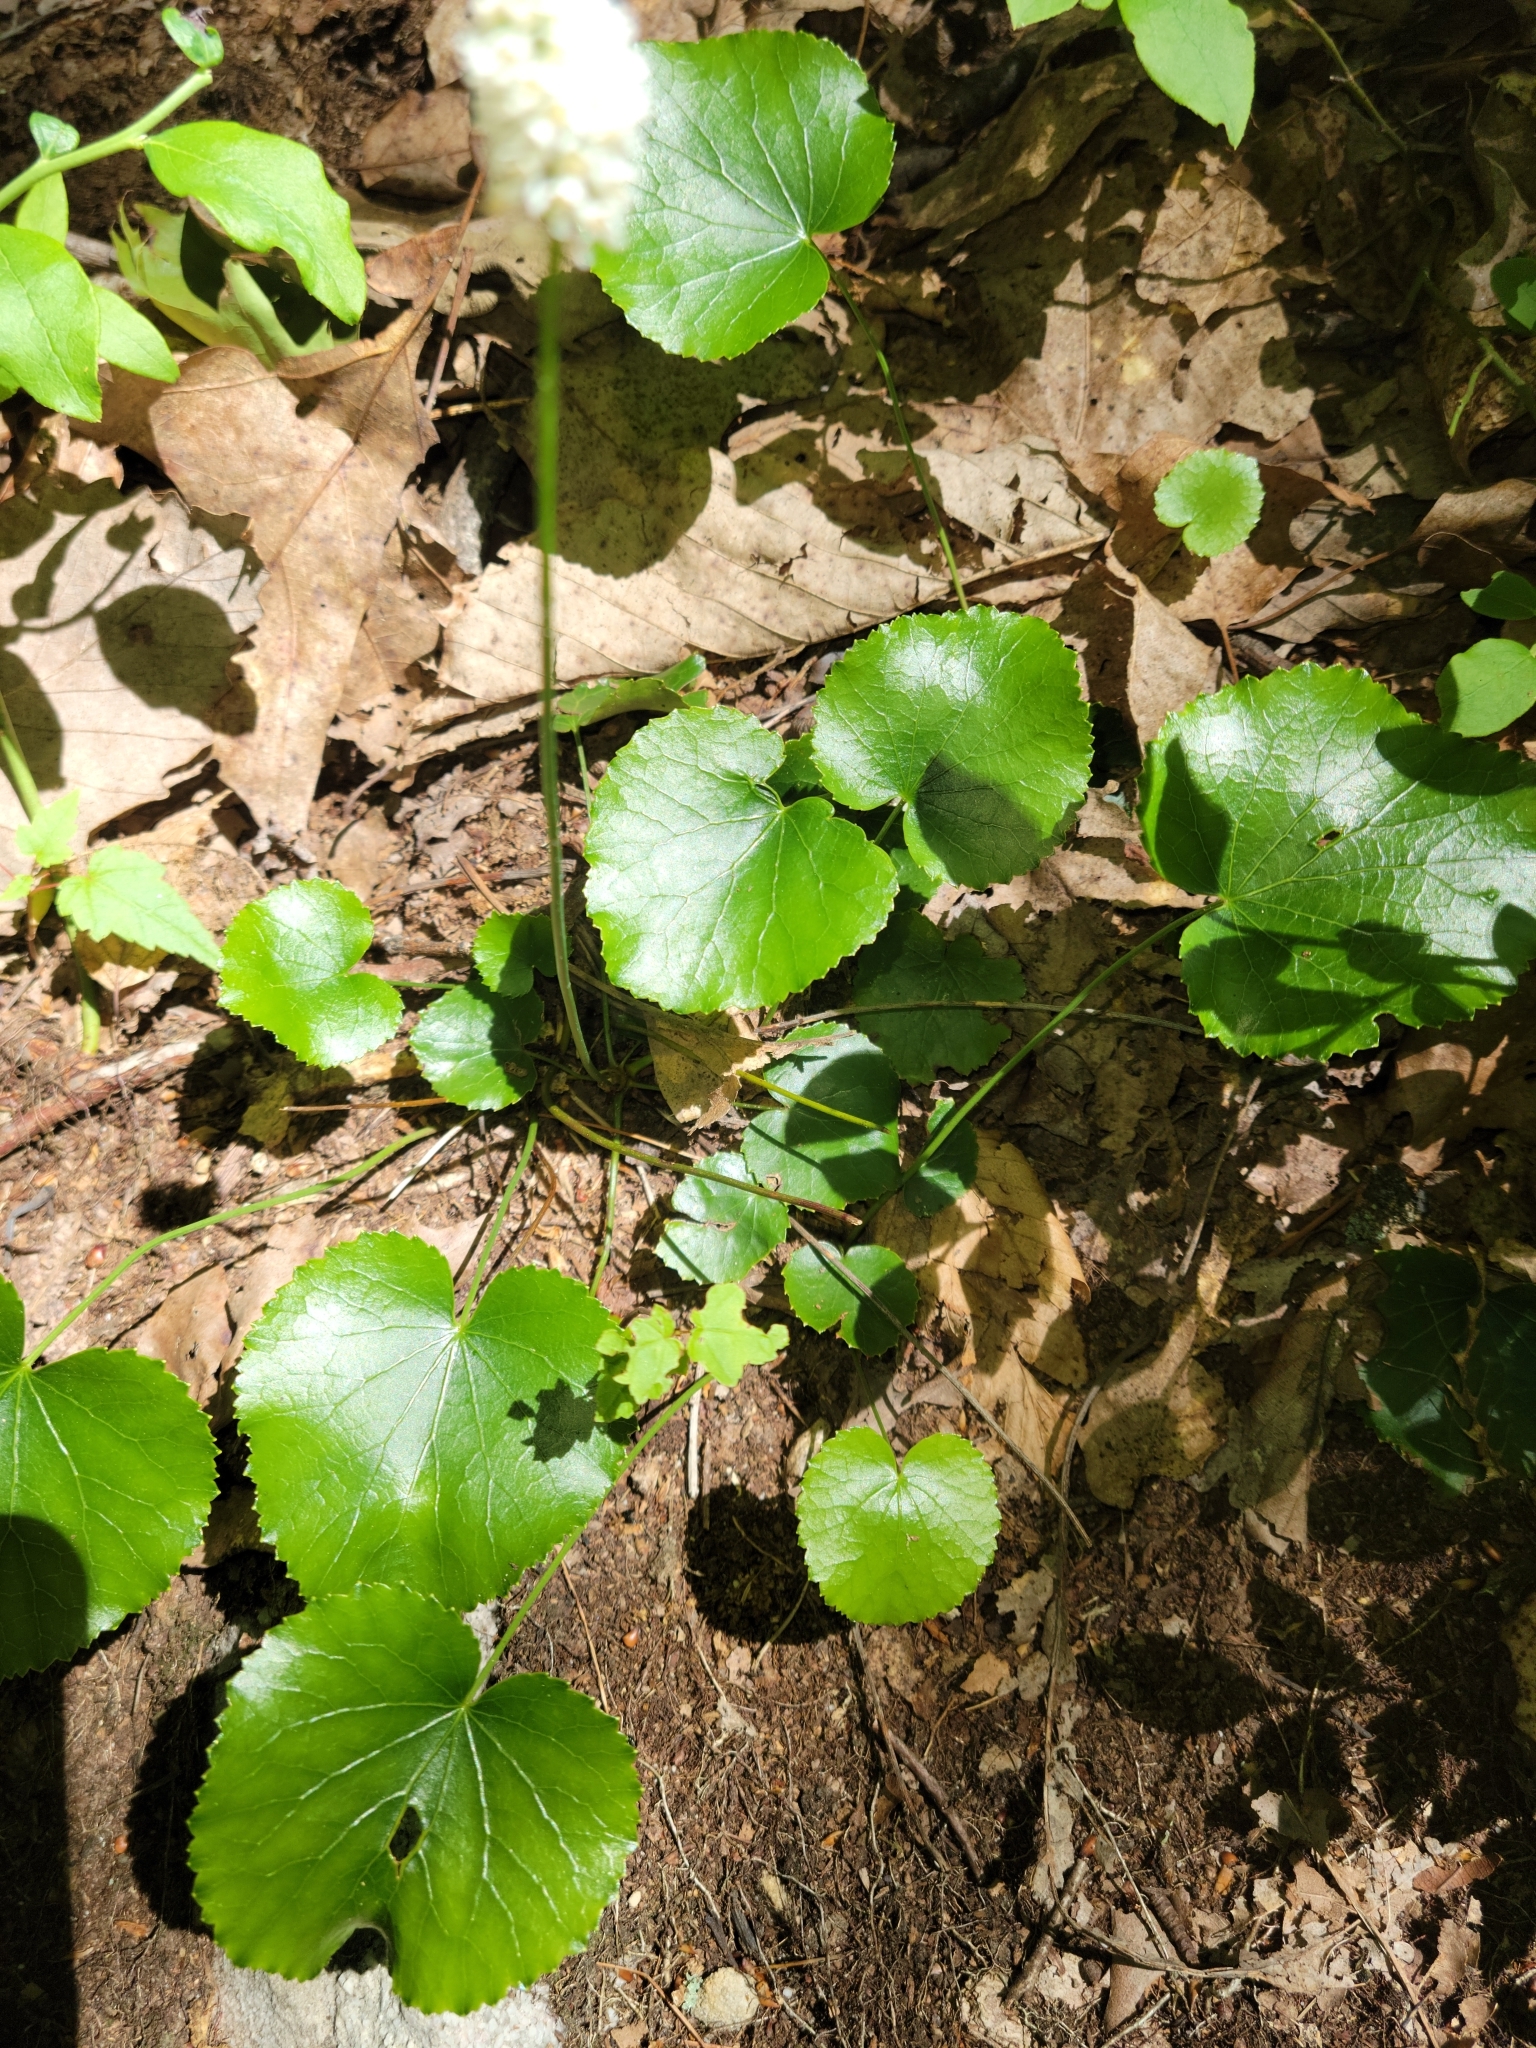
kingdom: Plantae
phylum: Tracheophyta
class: Magnoliopsida
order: Ericales
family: Diapensiaceae
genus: Galax
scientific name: Galax urceolata
